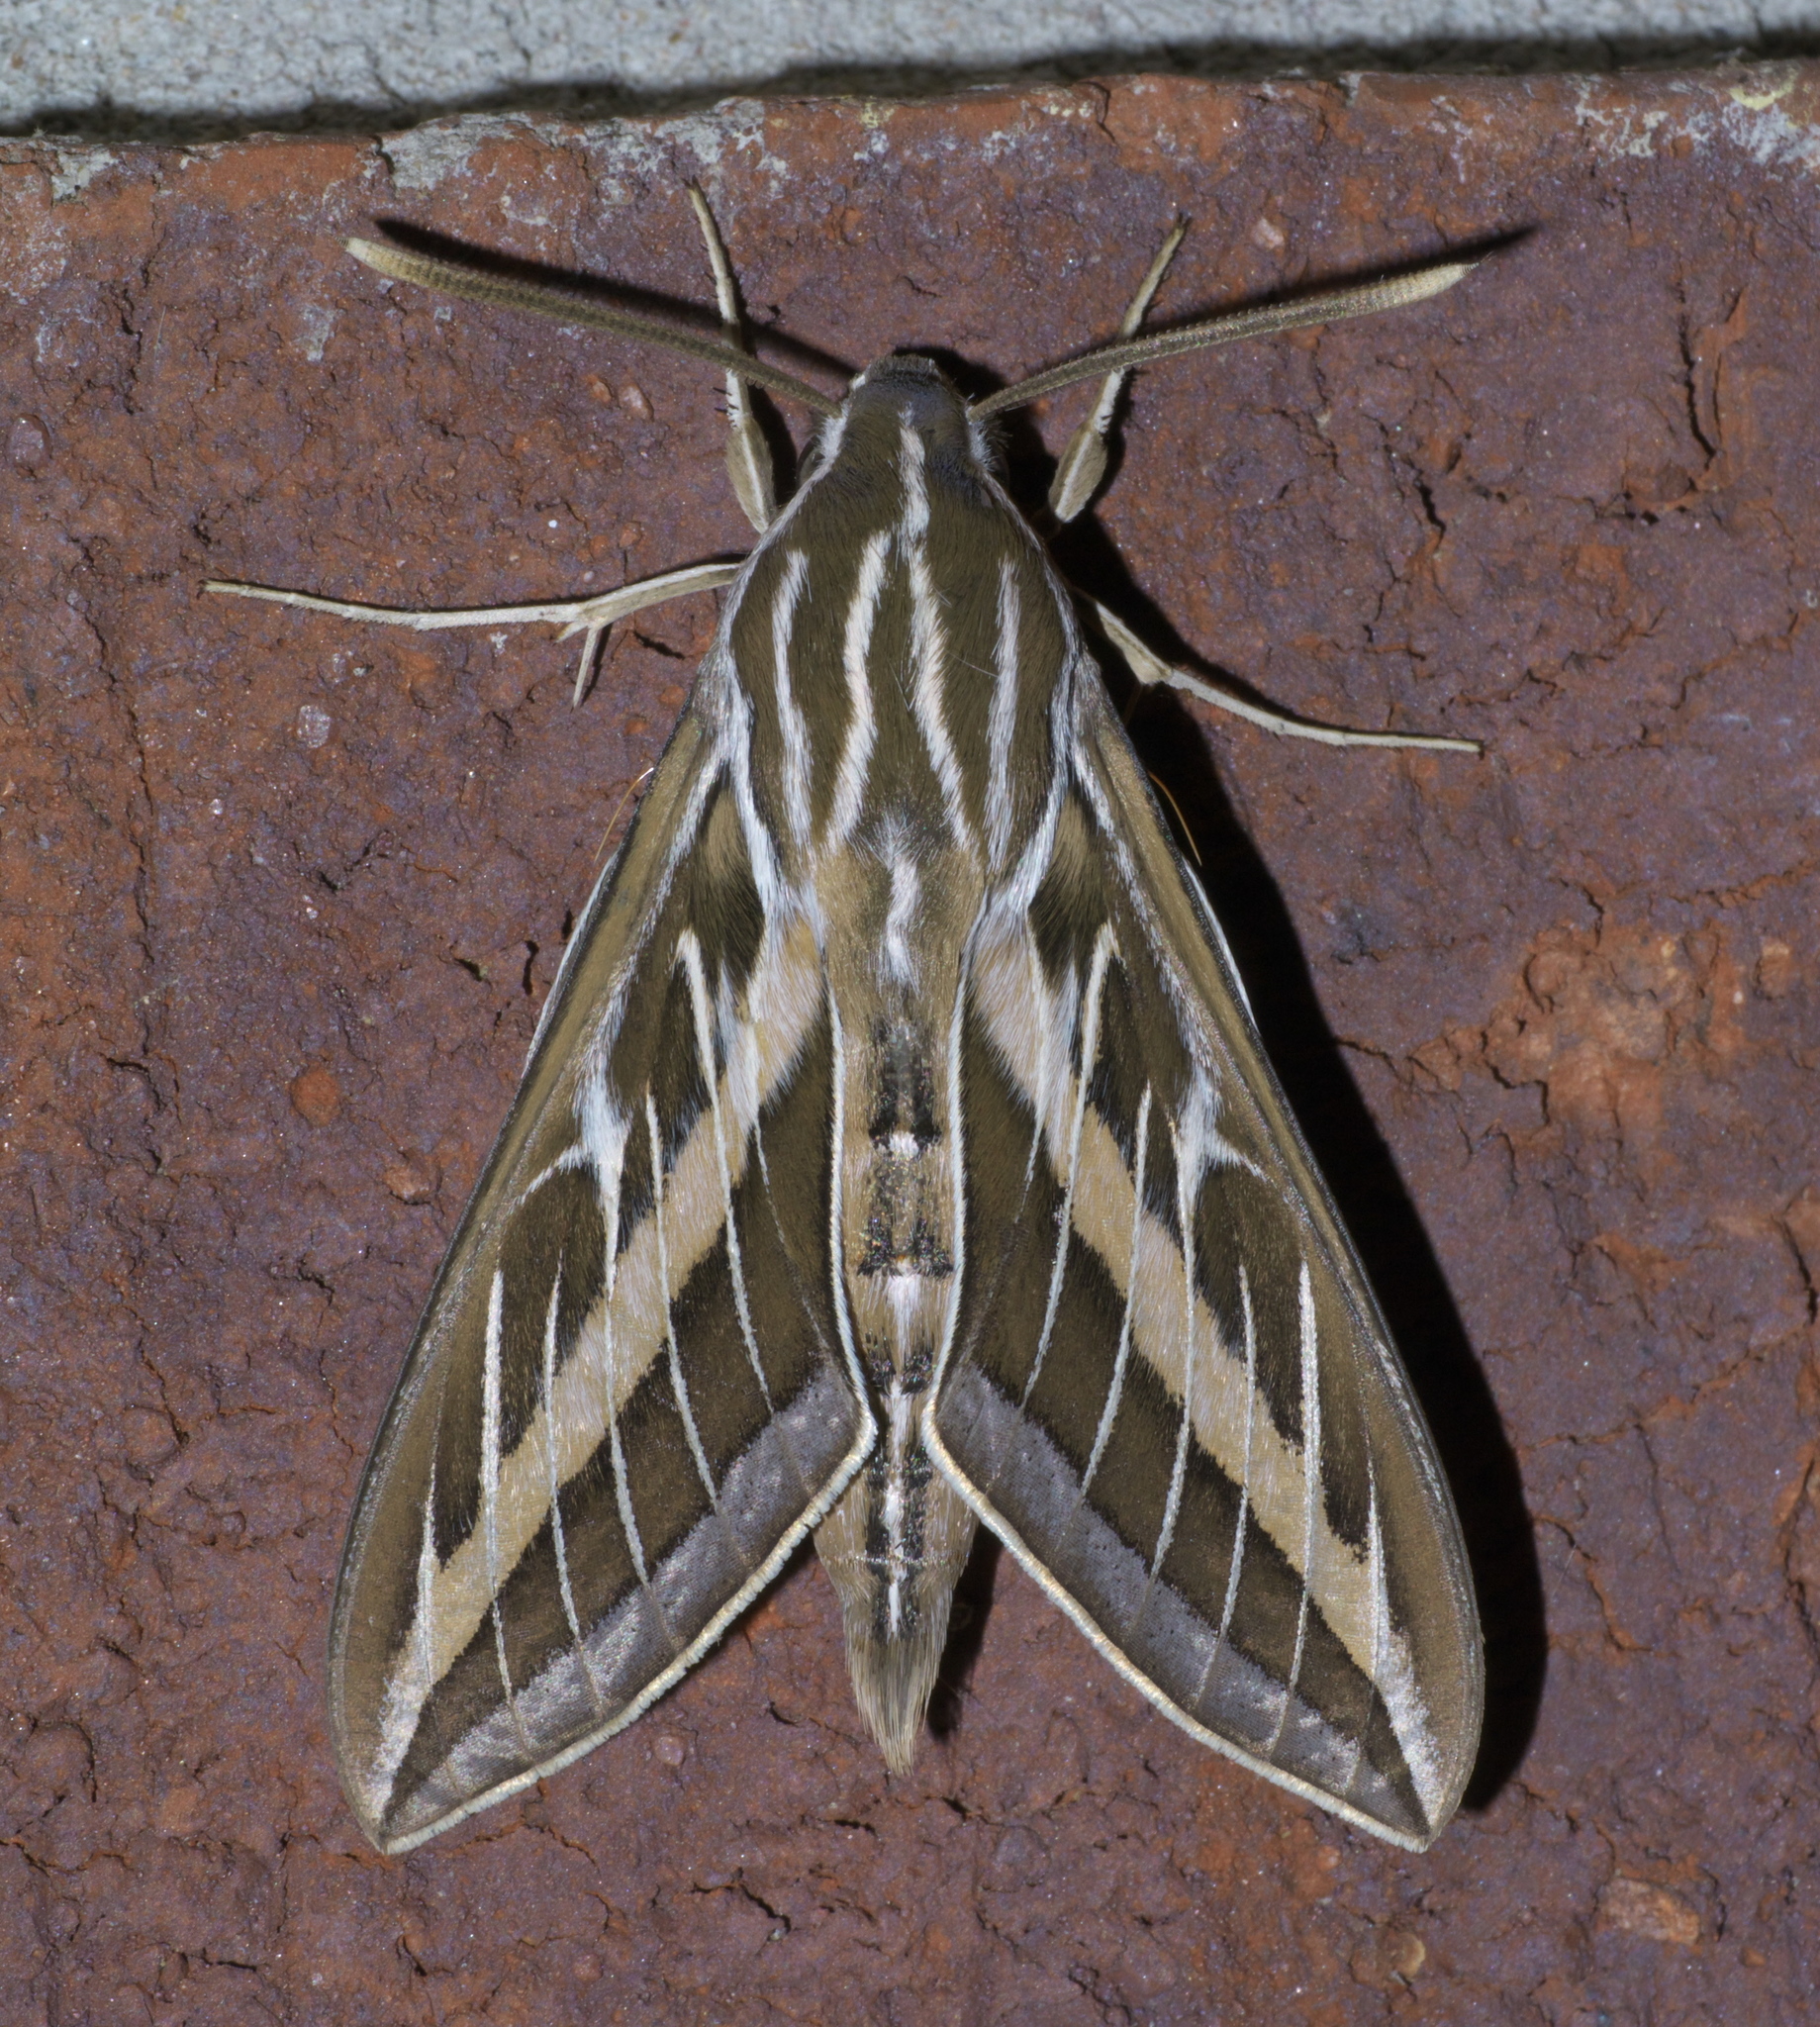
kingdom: Animalia
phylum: Arthropoda
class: Insecta
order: Lepidoptera
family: Sphingidae
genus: Hyles
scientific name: Hyles lineata
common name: White-lined sphinx
